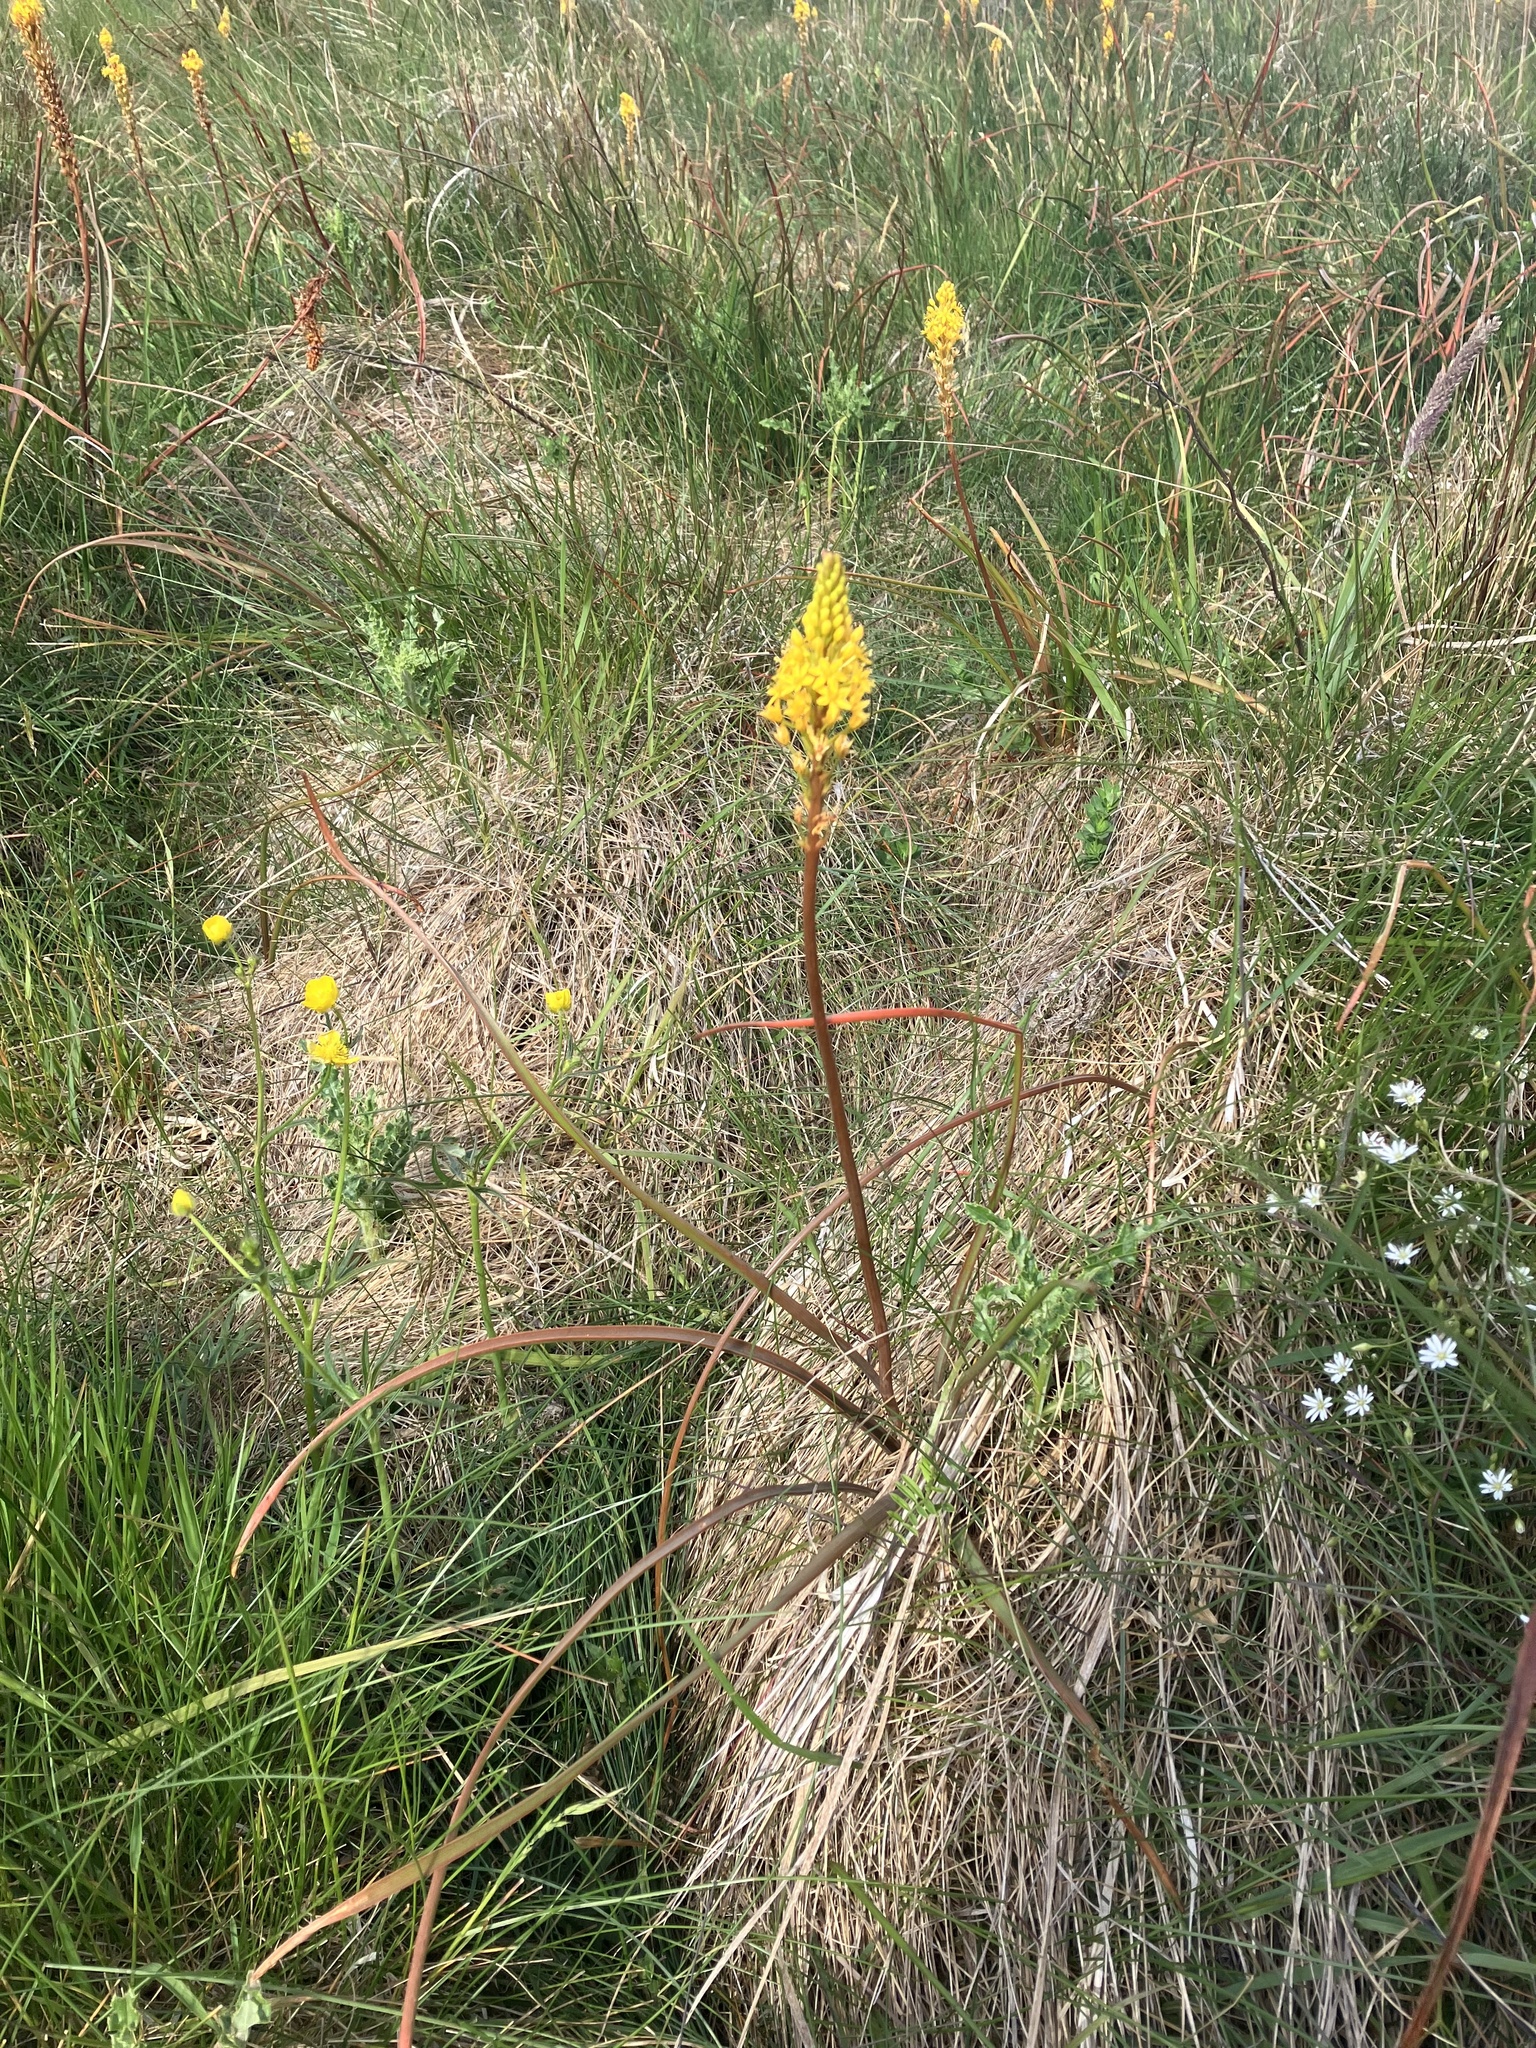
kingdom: Plantae
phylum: Tracheophyta
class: Liliopsida
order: Asparagales
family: Asphodelaceae
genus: Bulbinella
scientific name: Bulbinella angustifolia
